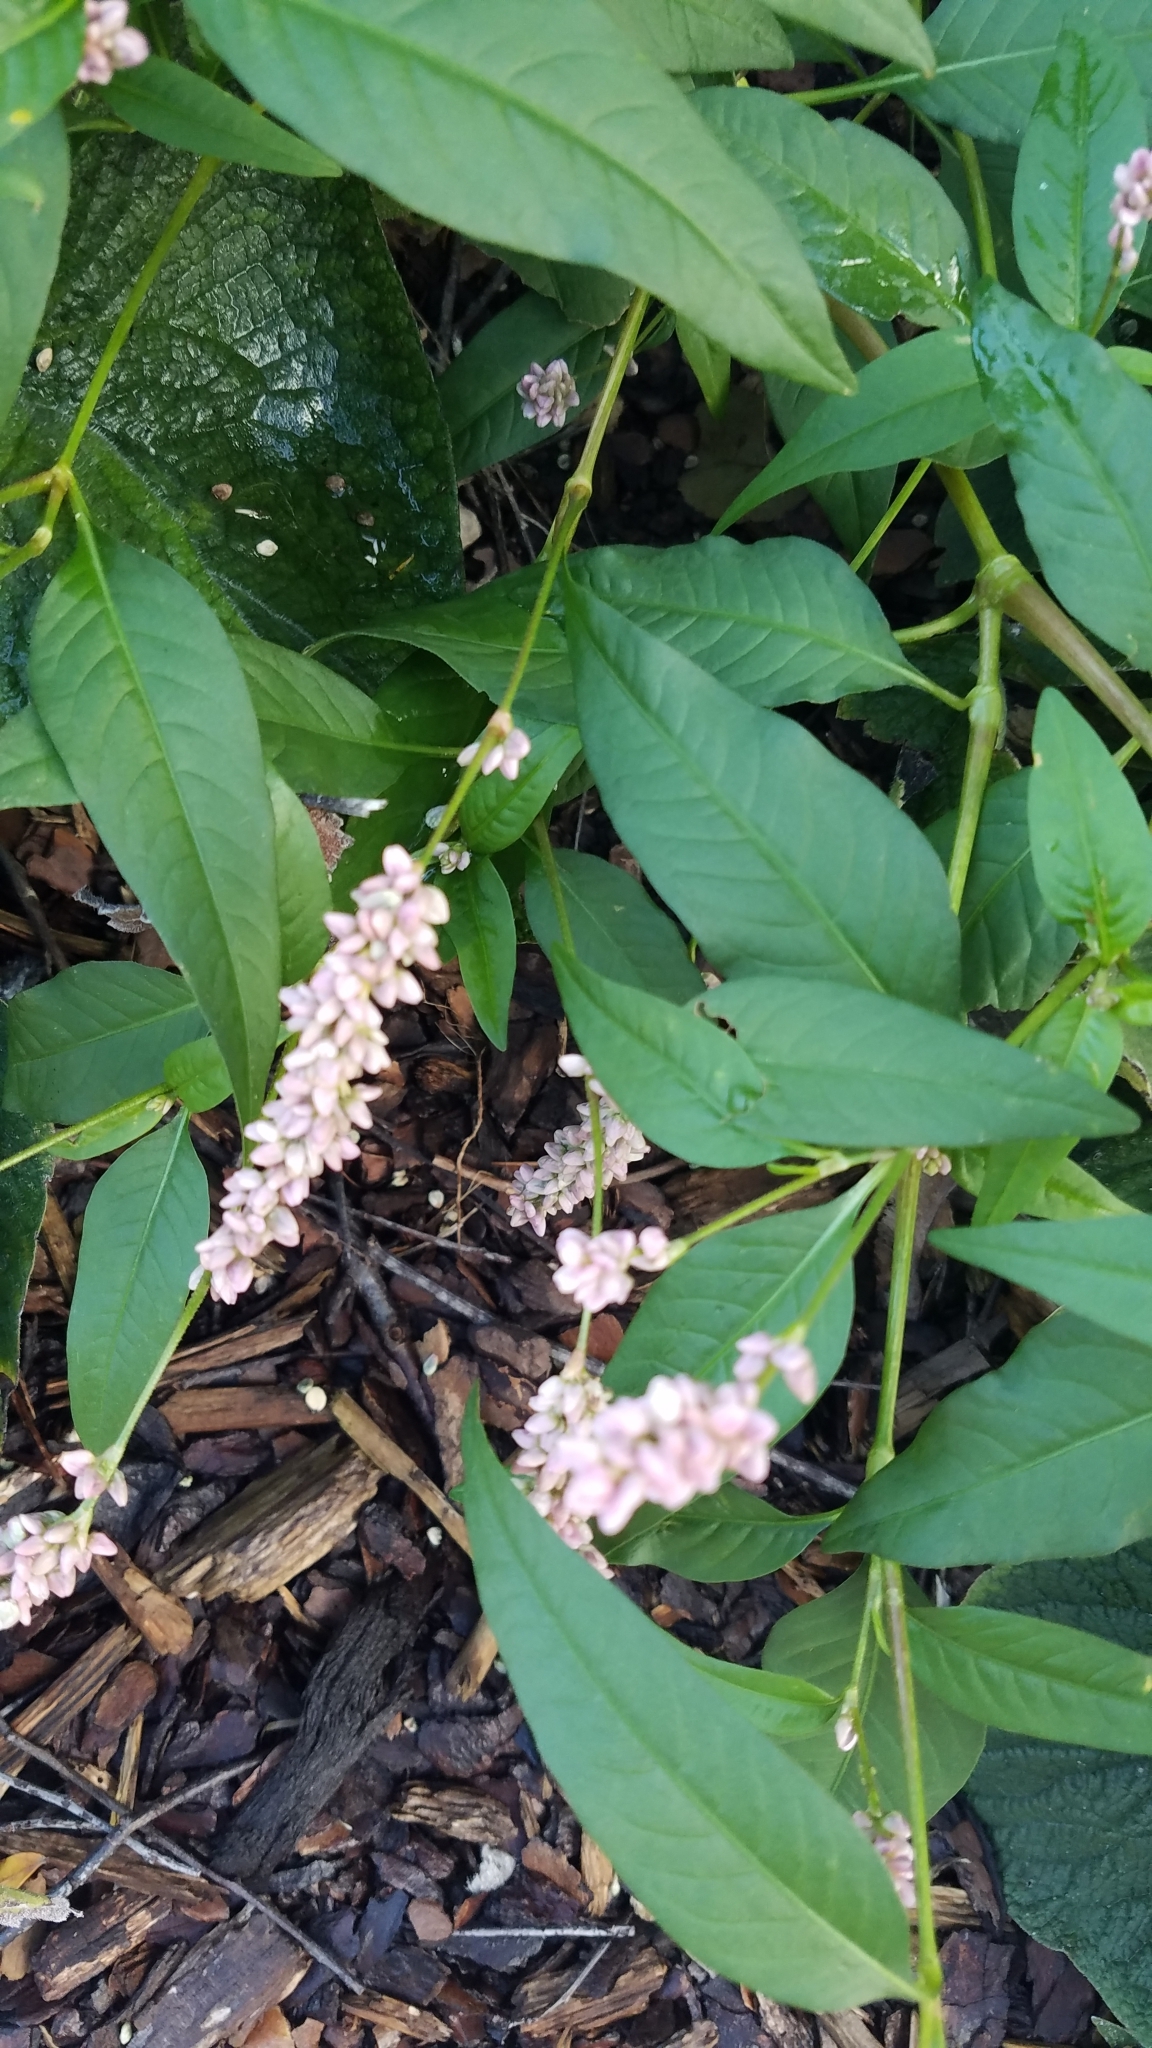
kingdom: Plantae
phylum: Tracheophyta
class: Magnoliopsida
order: Caryophyllales
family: Polygonaceae
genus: Persicaria
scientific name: Persicaria pensylvanica
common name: Pinkweed
